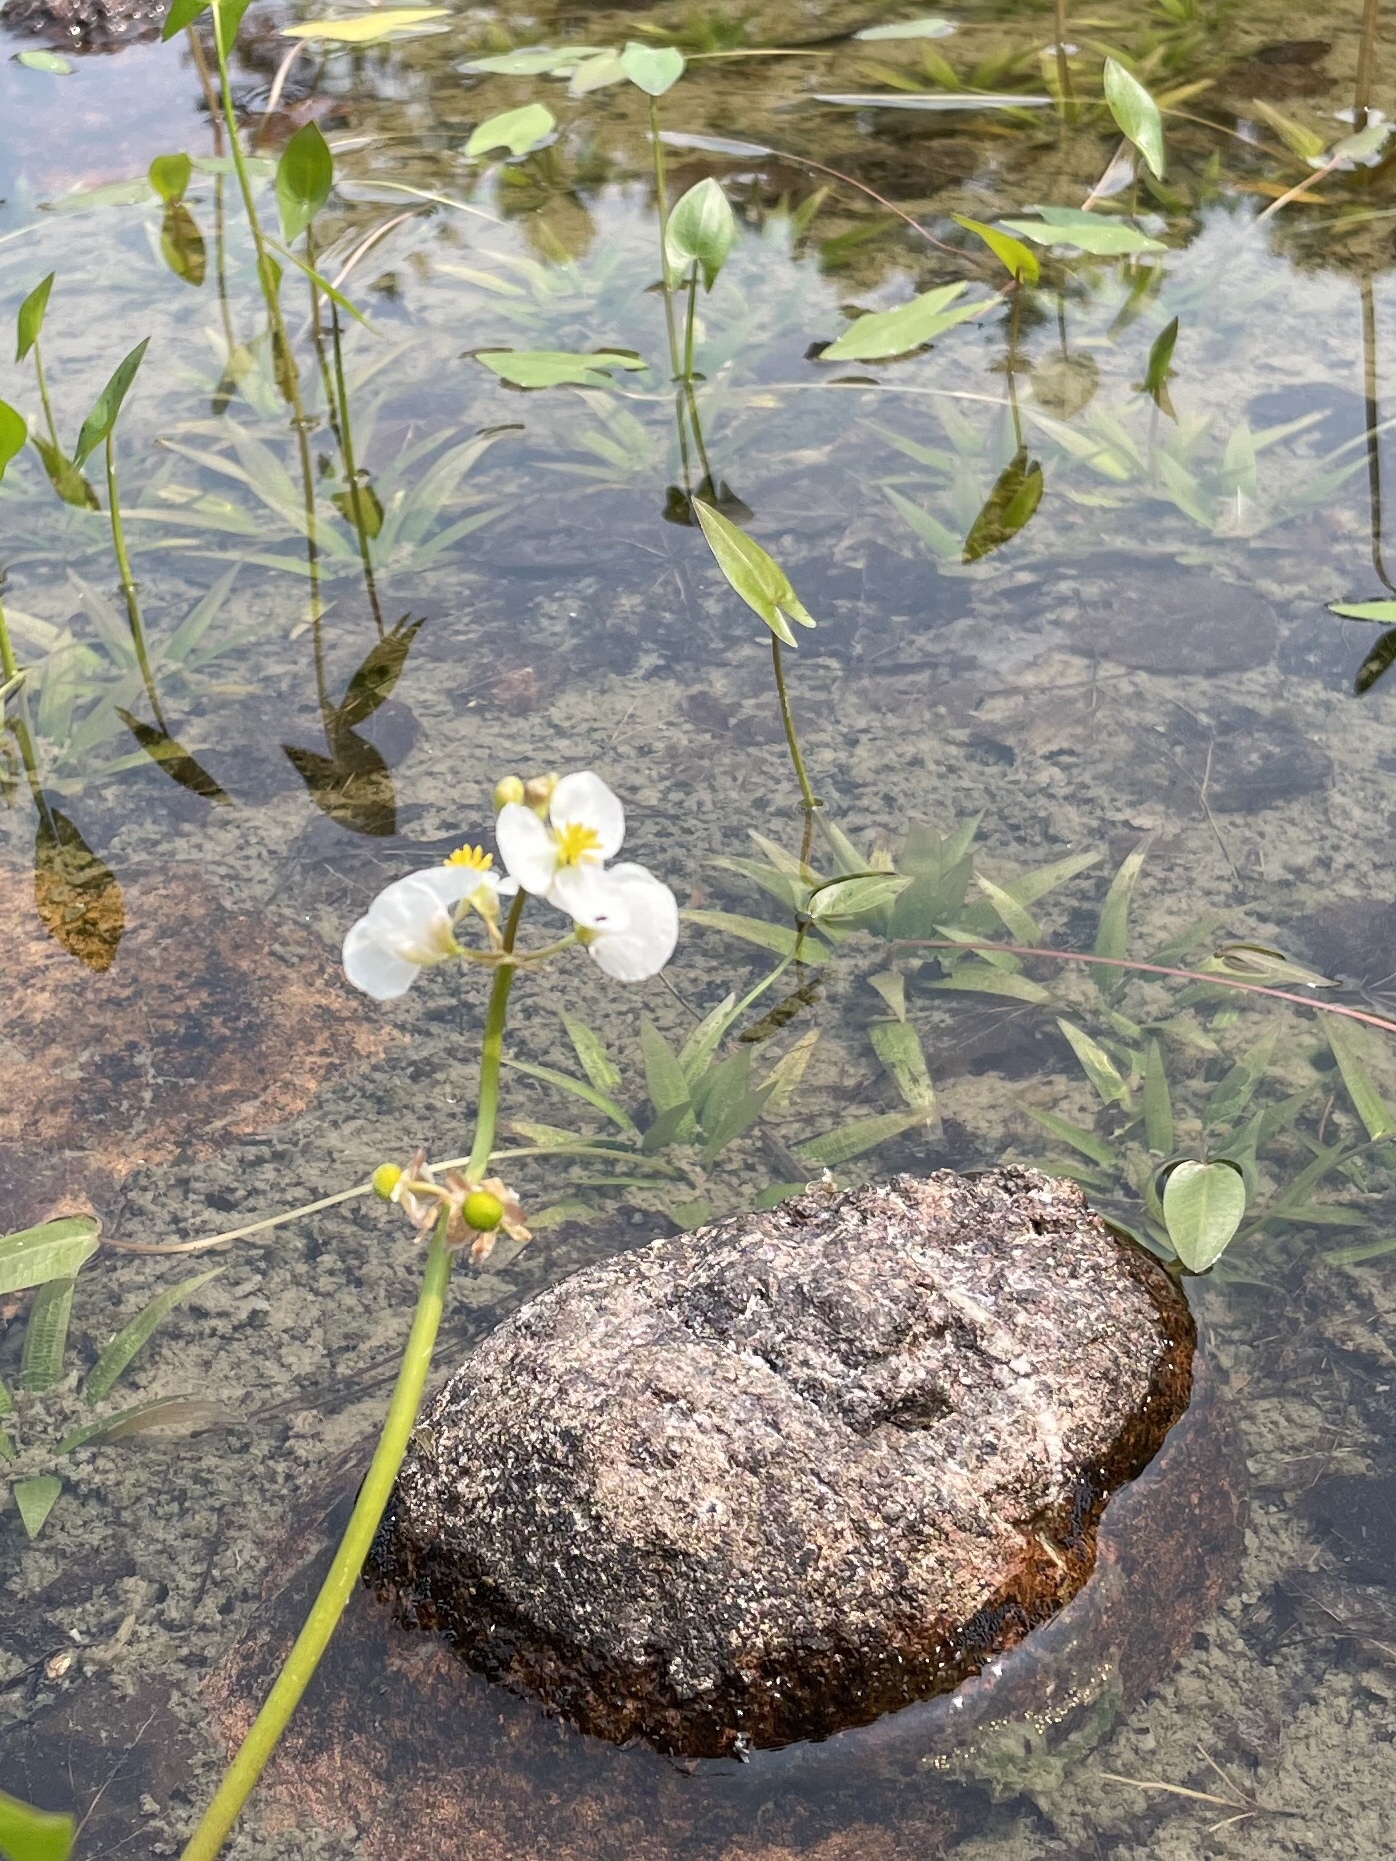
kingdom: Plantae
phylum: Tracheophyta
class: Liliopsida
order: Alismatales
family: Alismataceae
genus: Sagittaria
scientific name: Sagittaria cuneata
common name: Northern arrowhead
